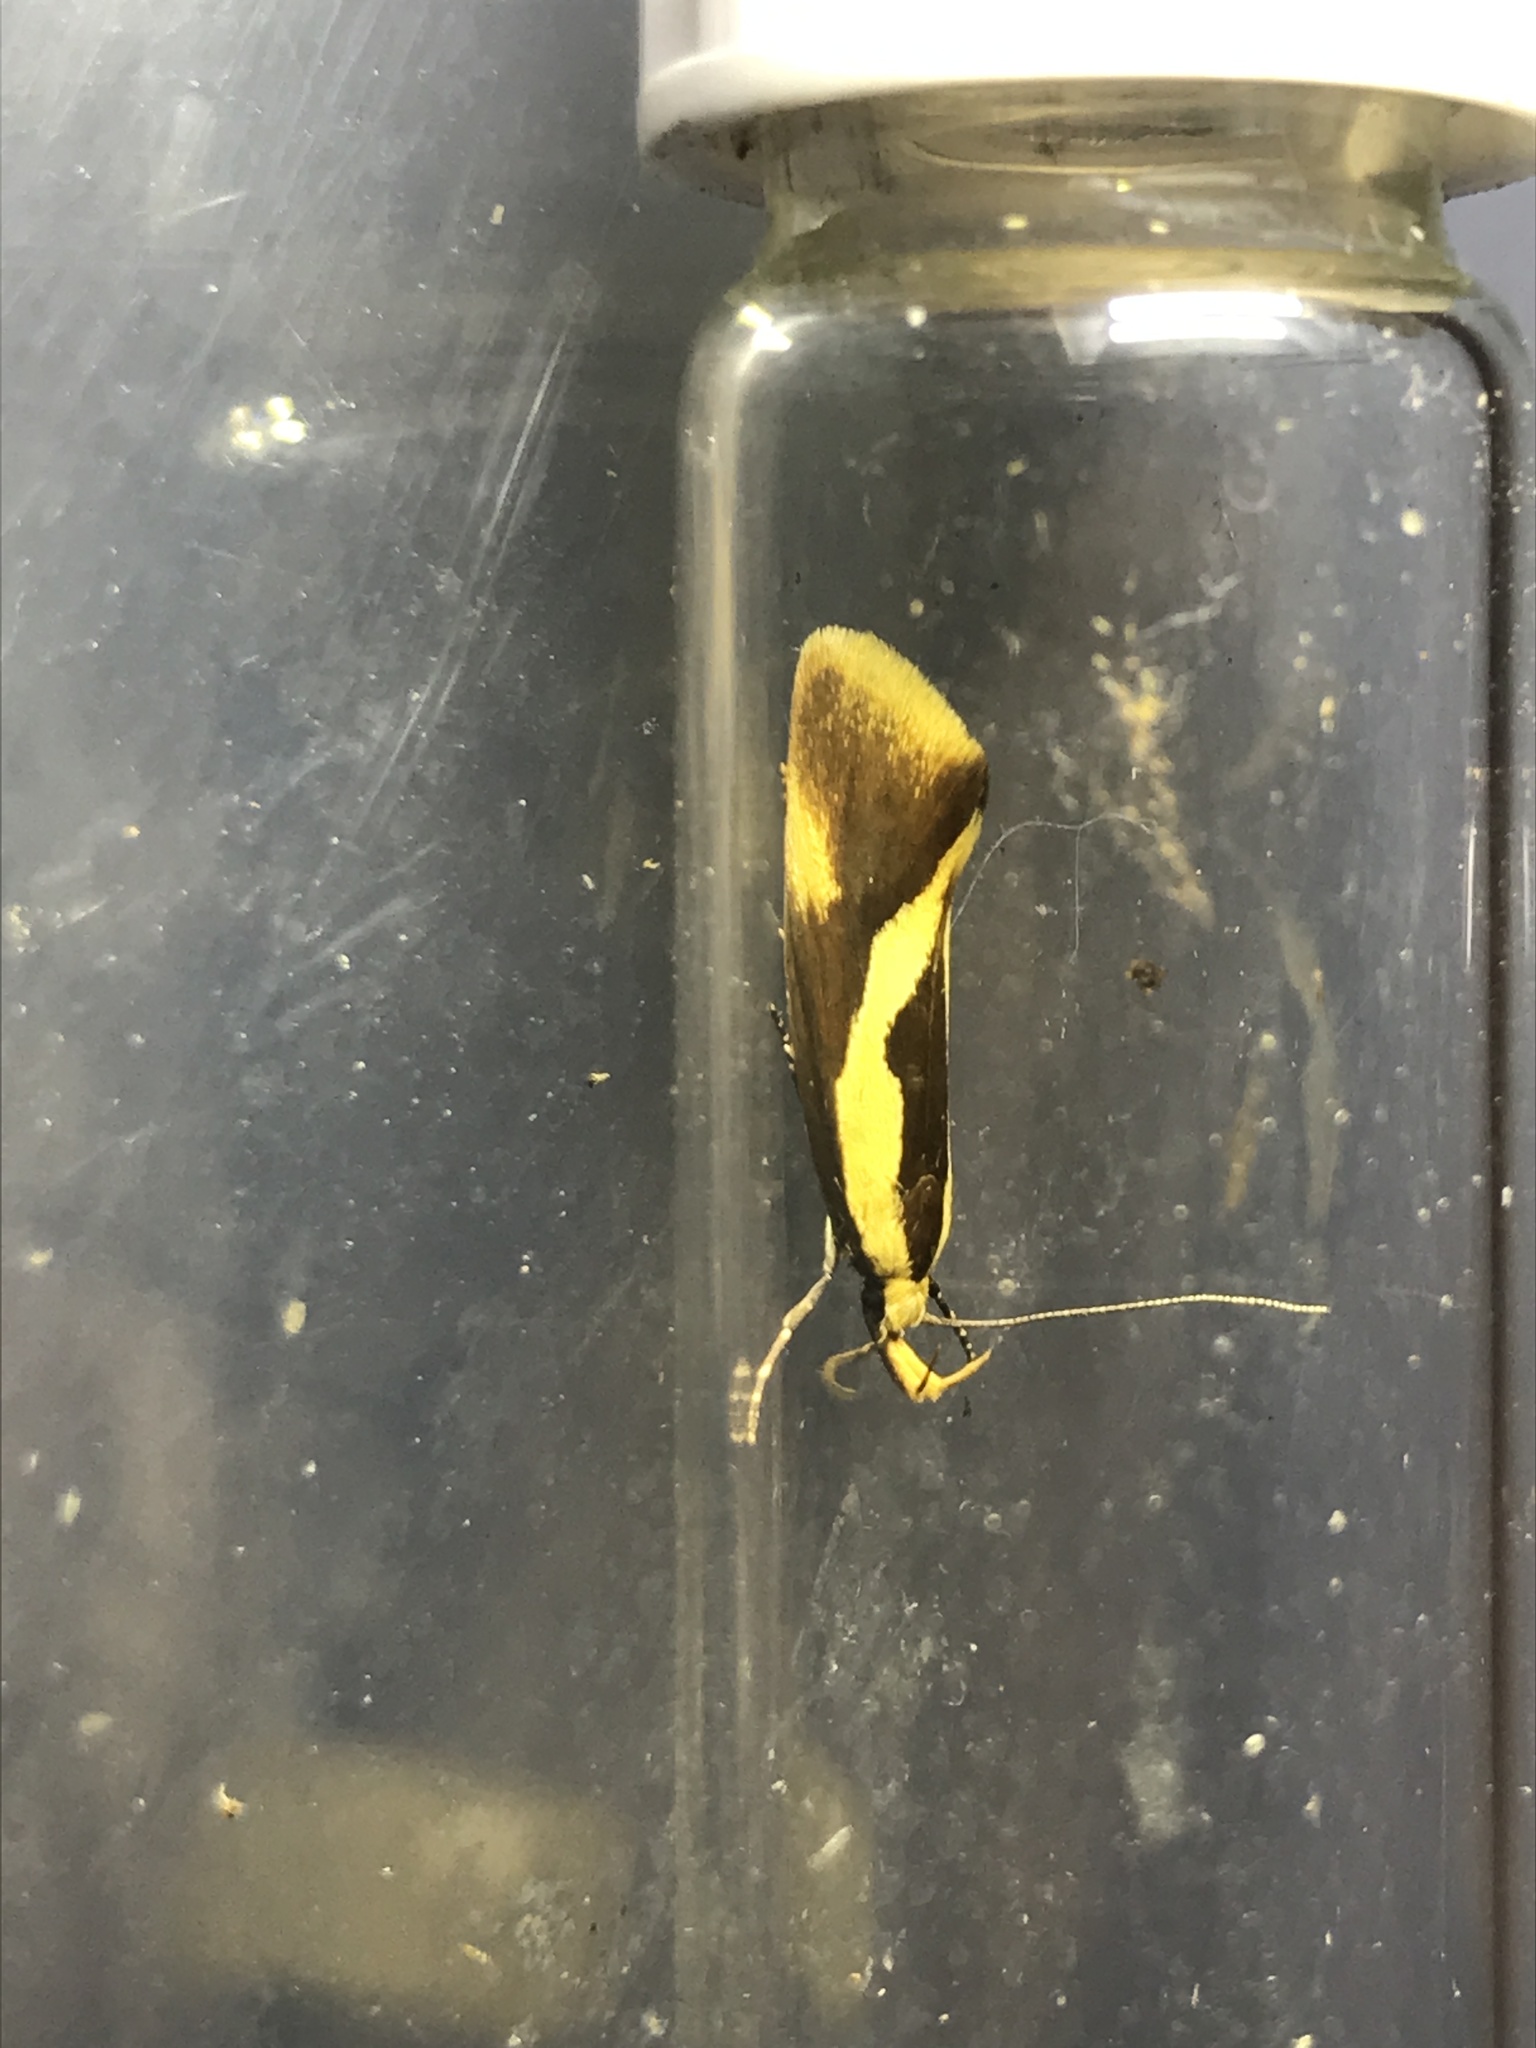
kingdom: Animalia
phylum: Arthropoda
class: Insecta
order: Lepidoptera
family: Oecophoridae
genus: Harpella
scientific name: Harpella forficella
